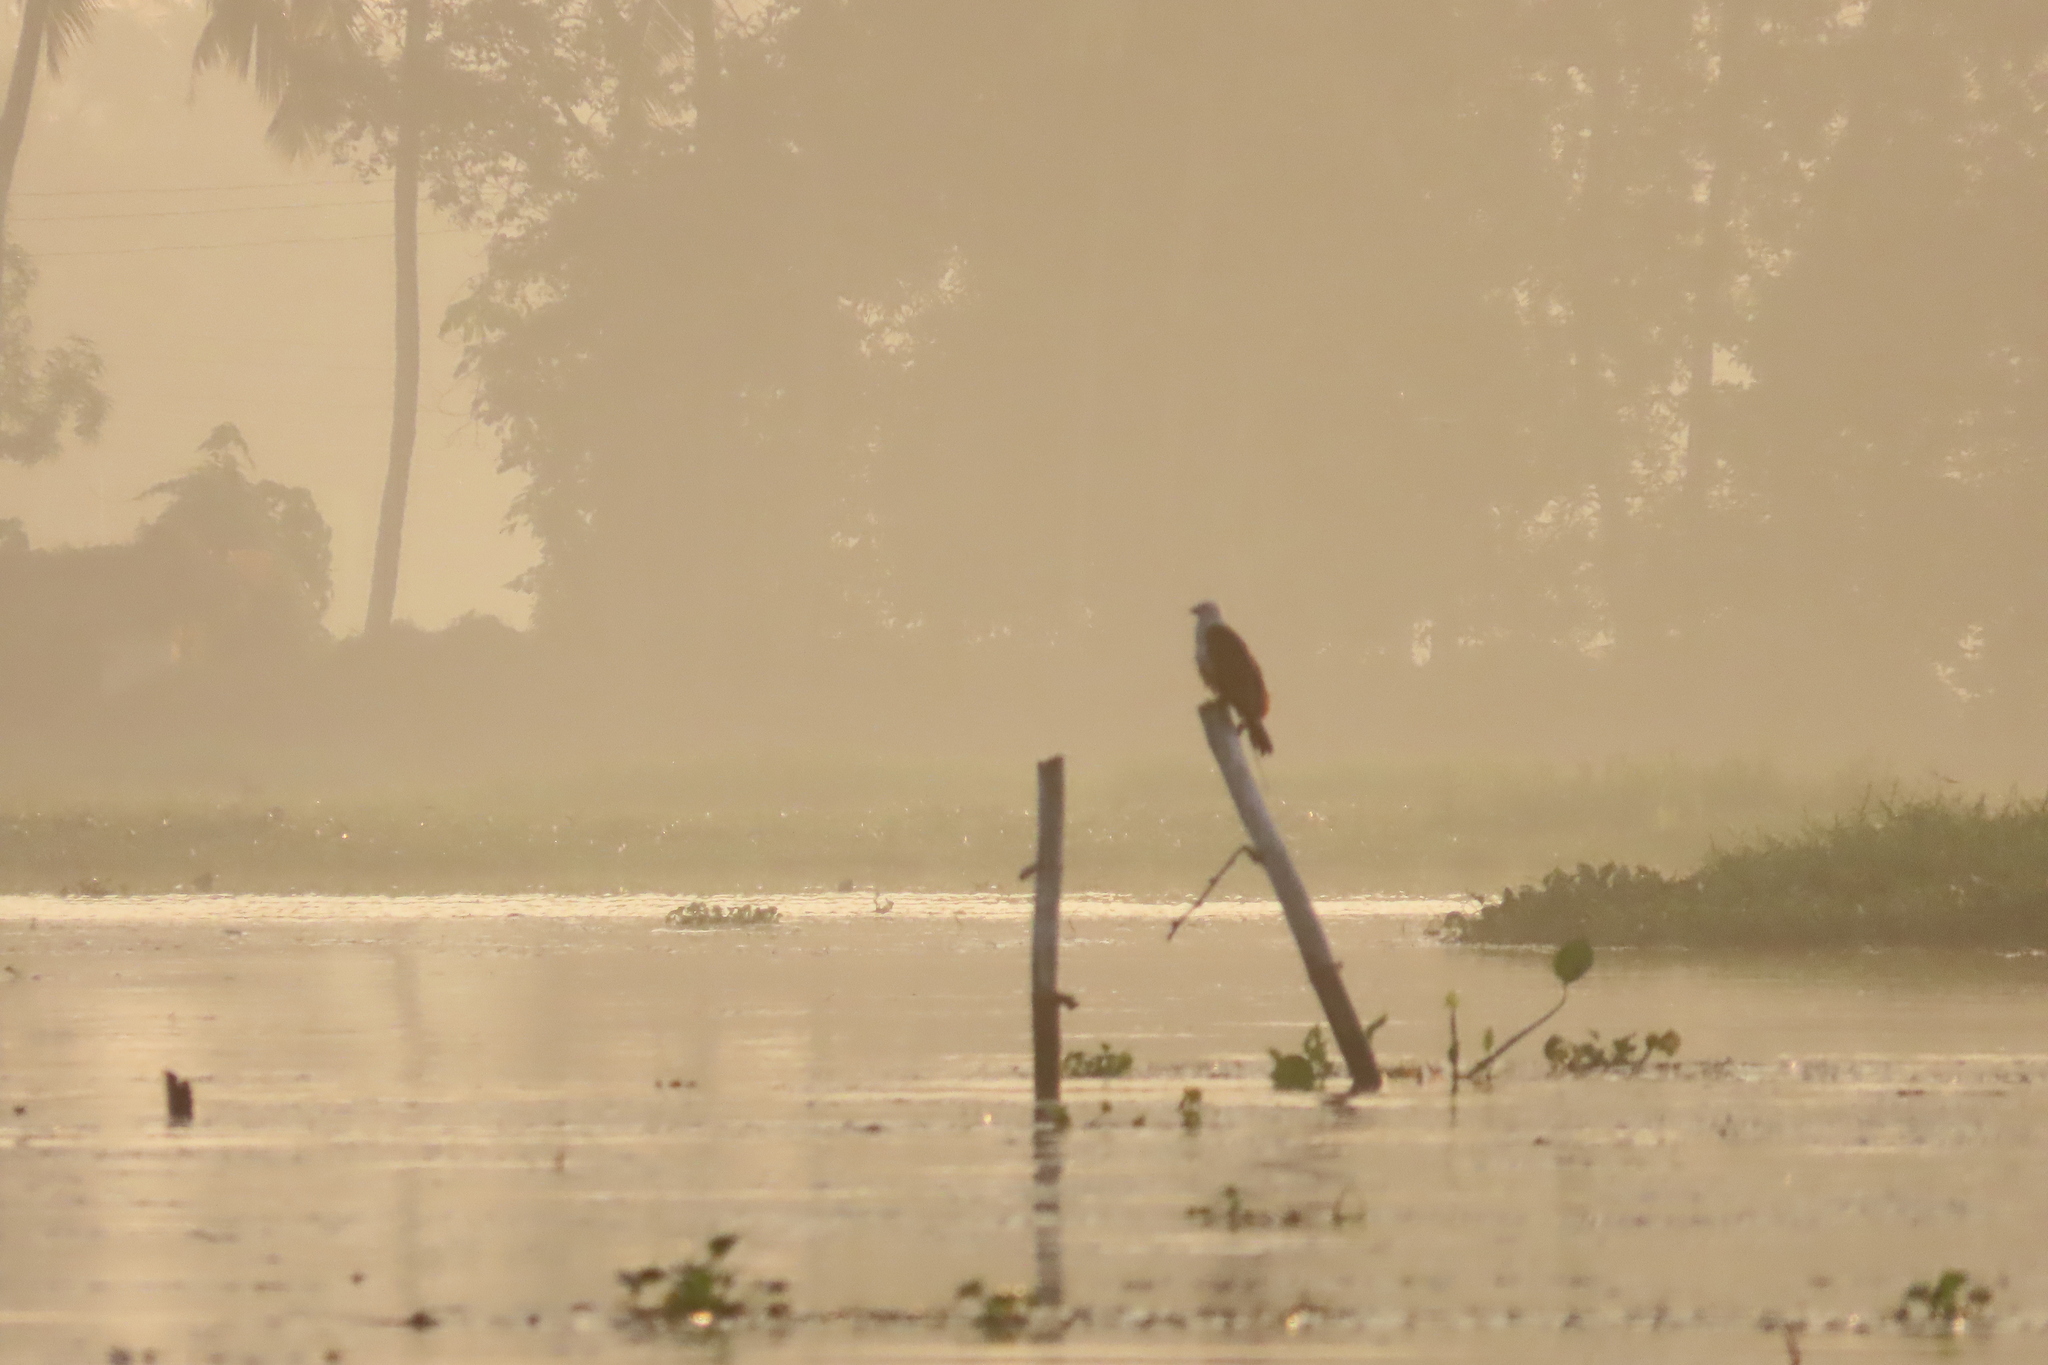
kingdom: Animalia
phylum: Chordata
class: Aves
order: Accipitriformes
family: Accipitridae
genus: Haliastur
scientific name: Haliastur indus
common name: Brahminy kite
